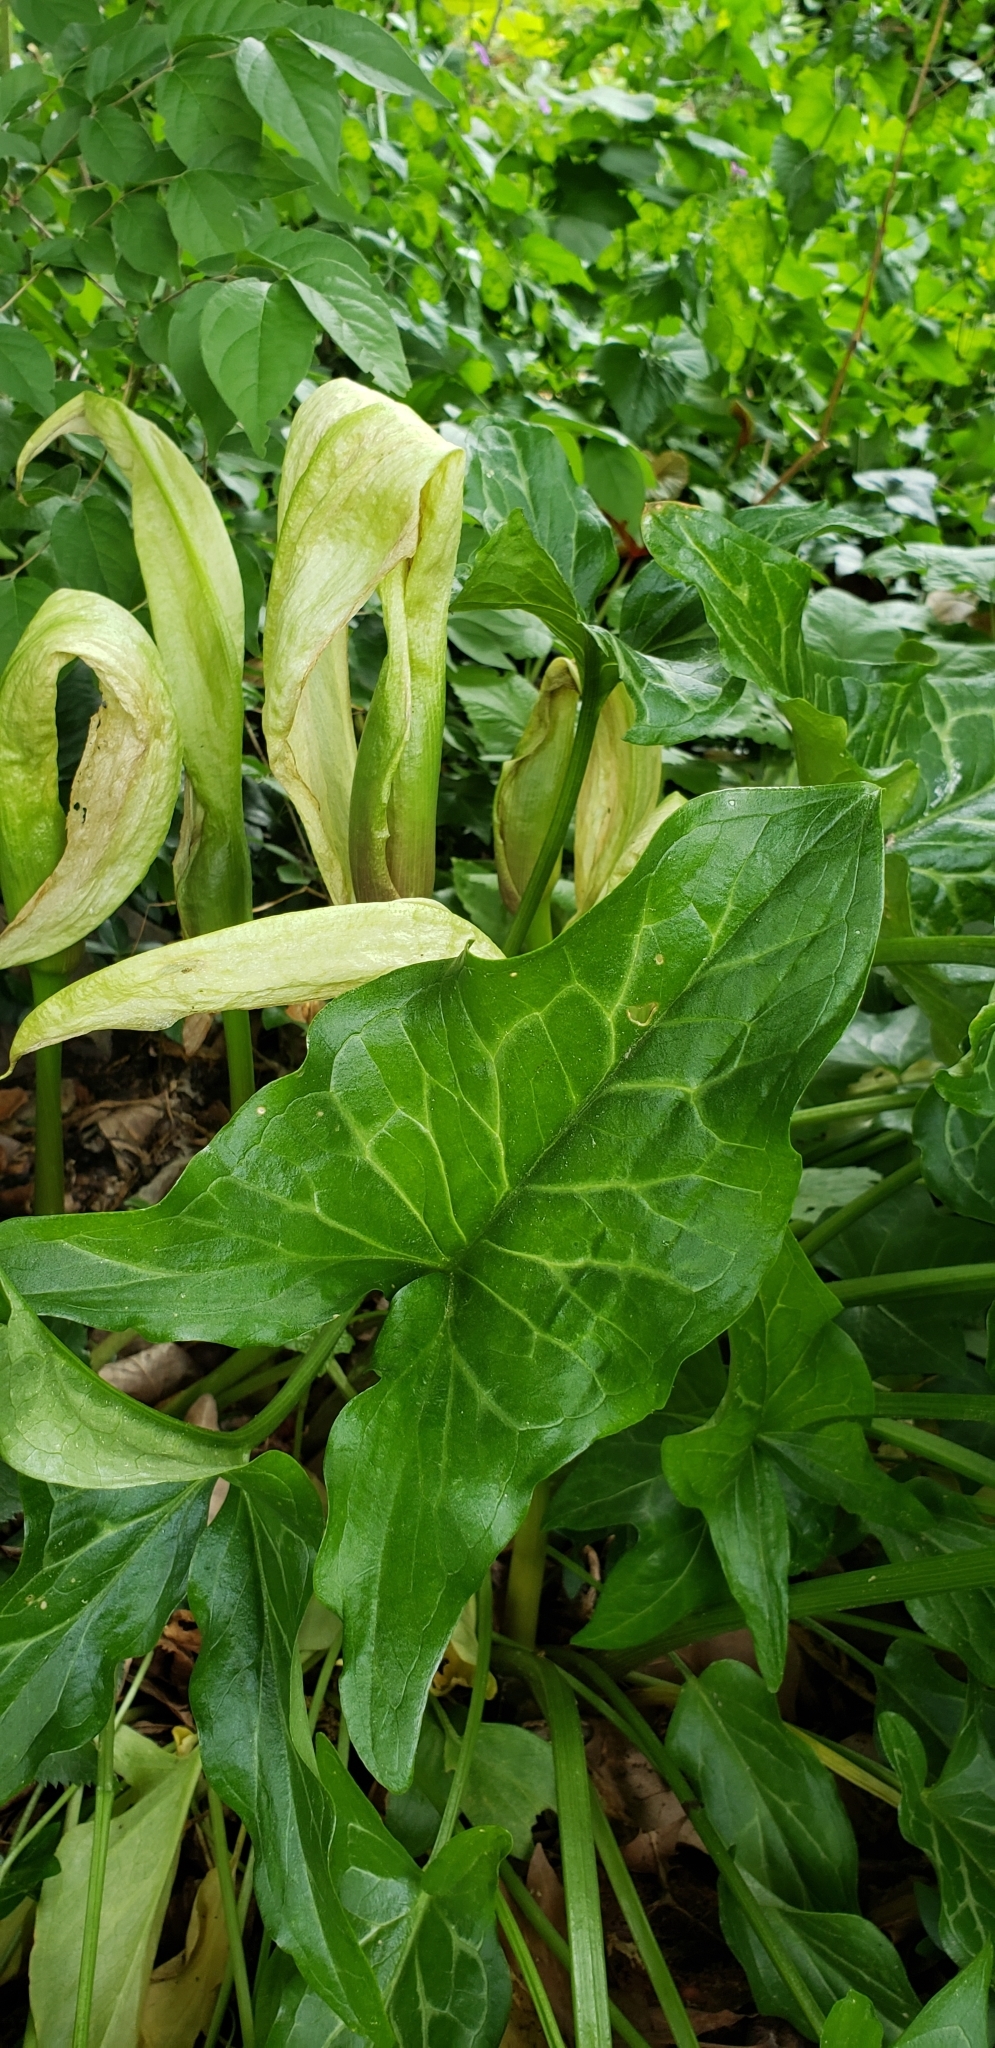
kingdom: Plantae
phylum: Tracheophyta
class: Liliopsida
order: Alismatales
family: Araceae
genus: Arum
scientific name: Arum italicum
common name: Italian lords-and-ladies
